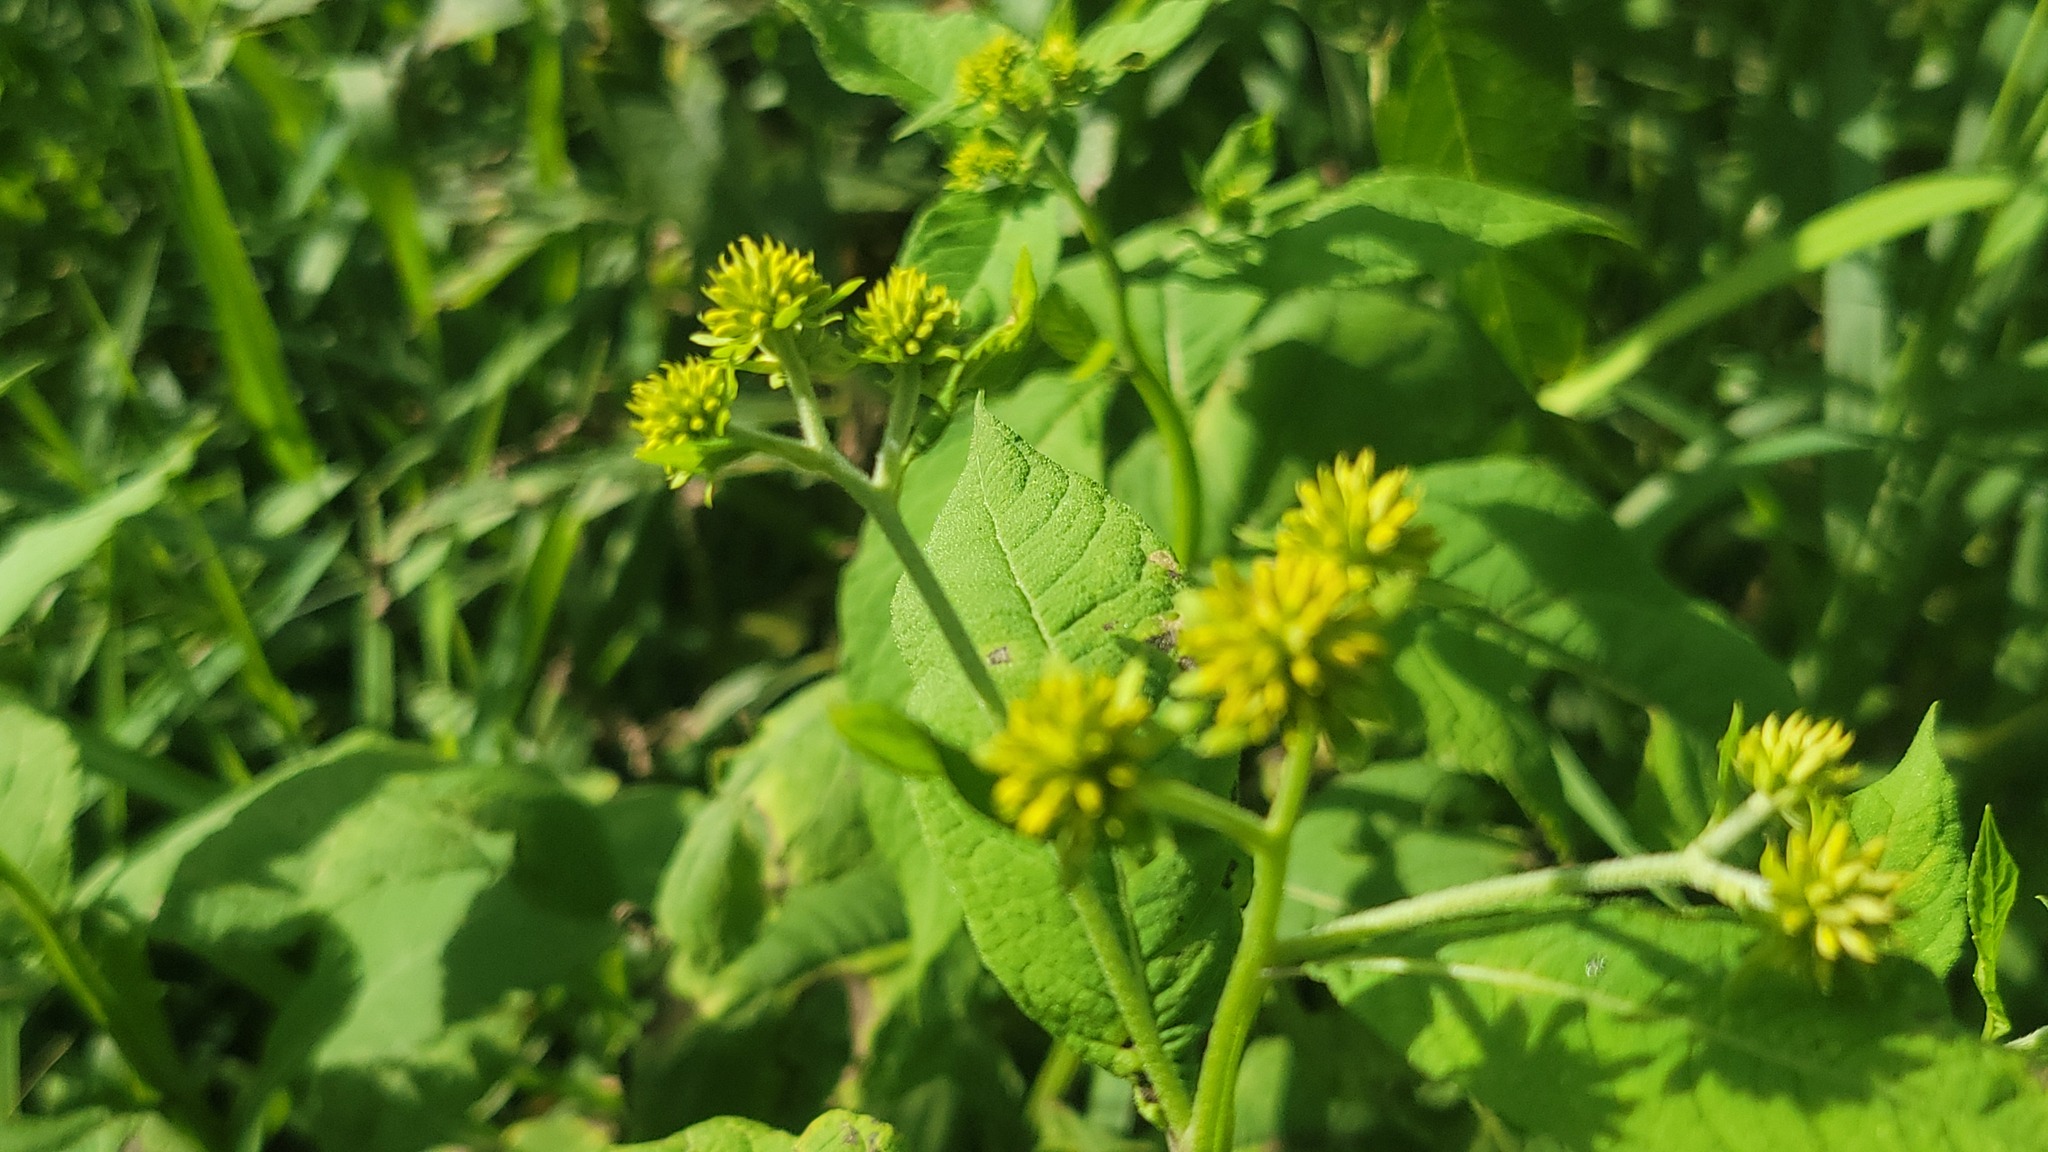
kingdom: Plantae
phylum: Tracheophyta
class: Magnoliopsida
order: Asterales
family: Asteraceae
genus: Verbesina
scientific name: Verbesina alternifolia
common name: Wingstem
